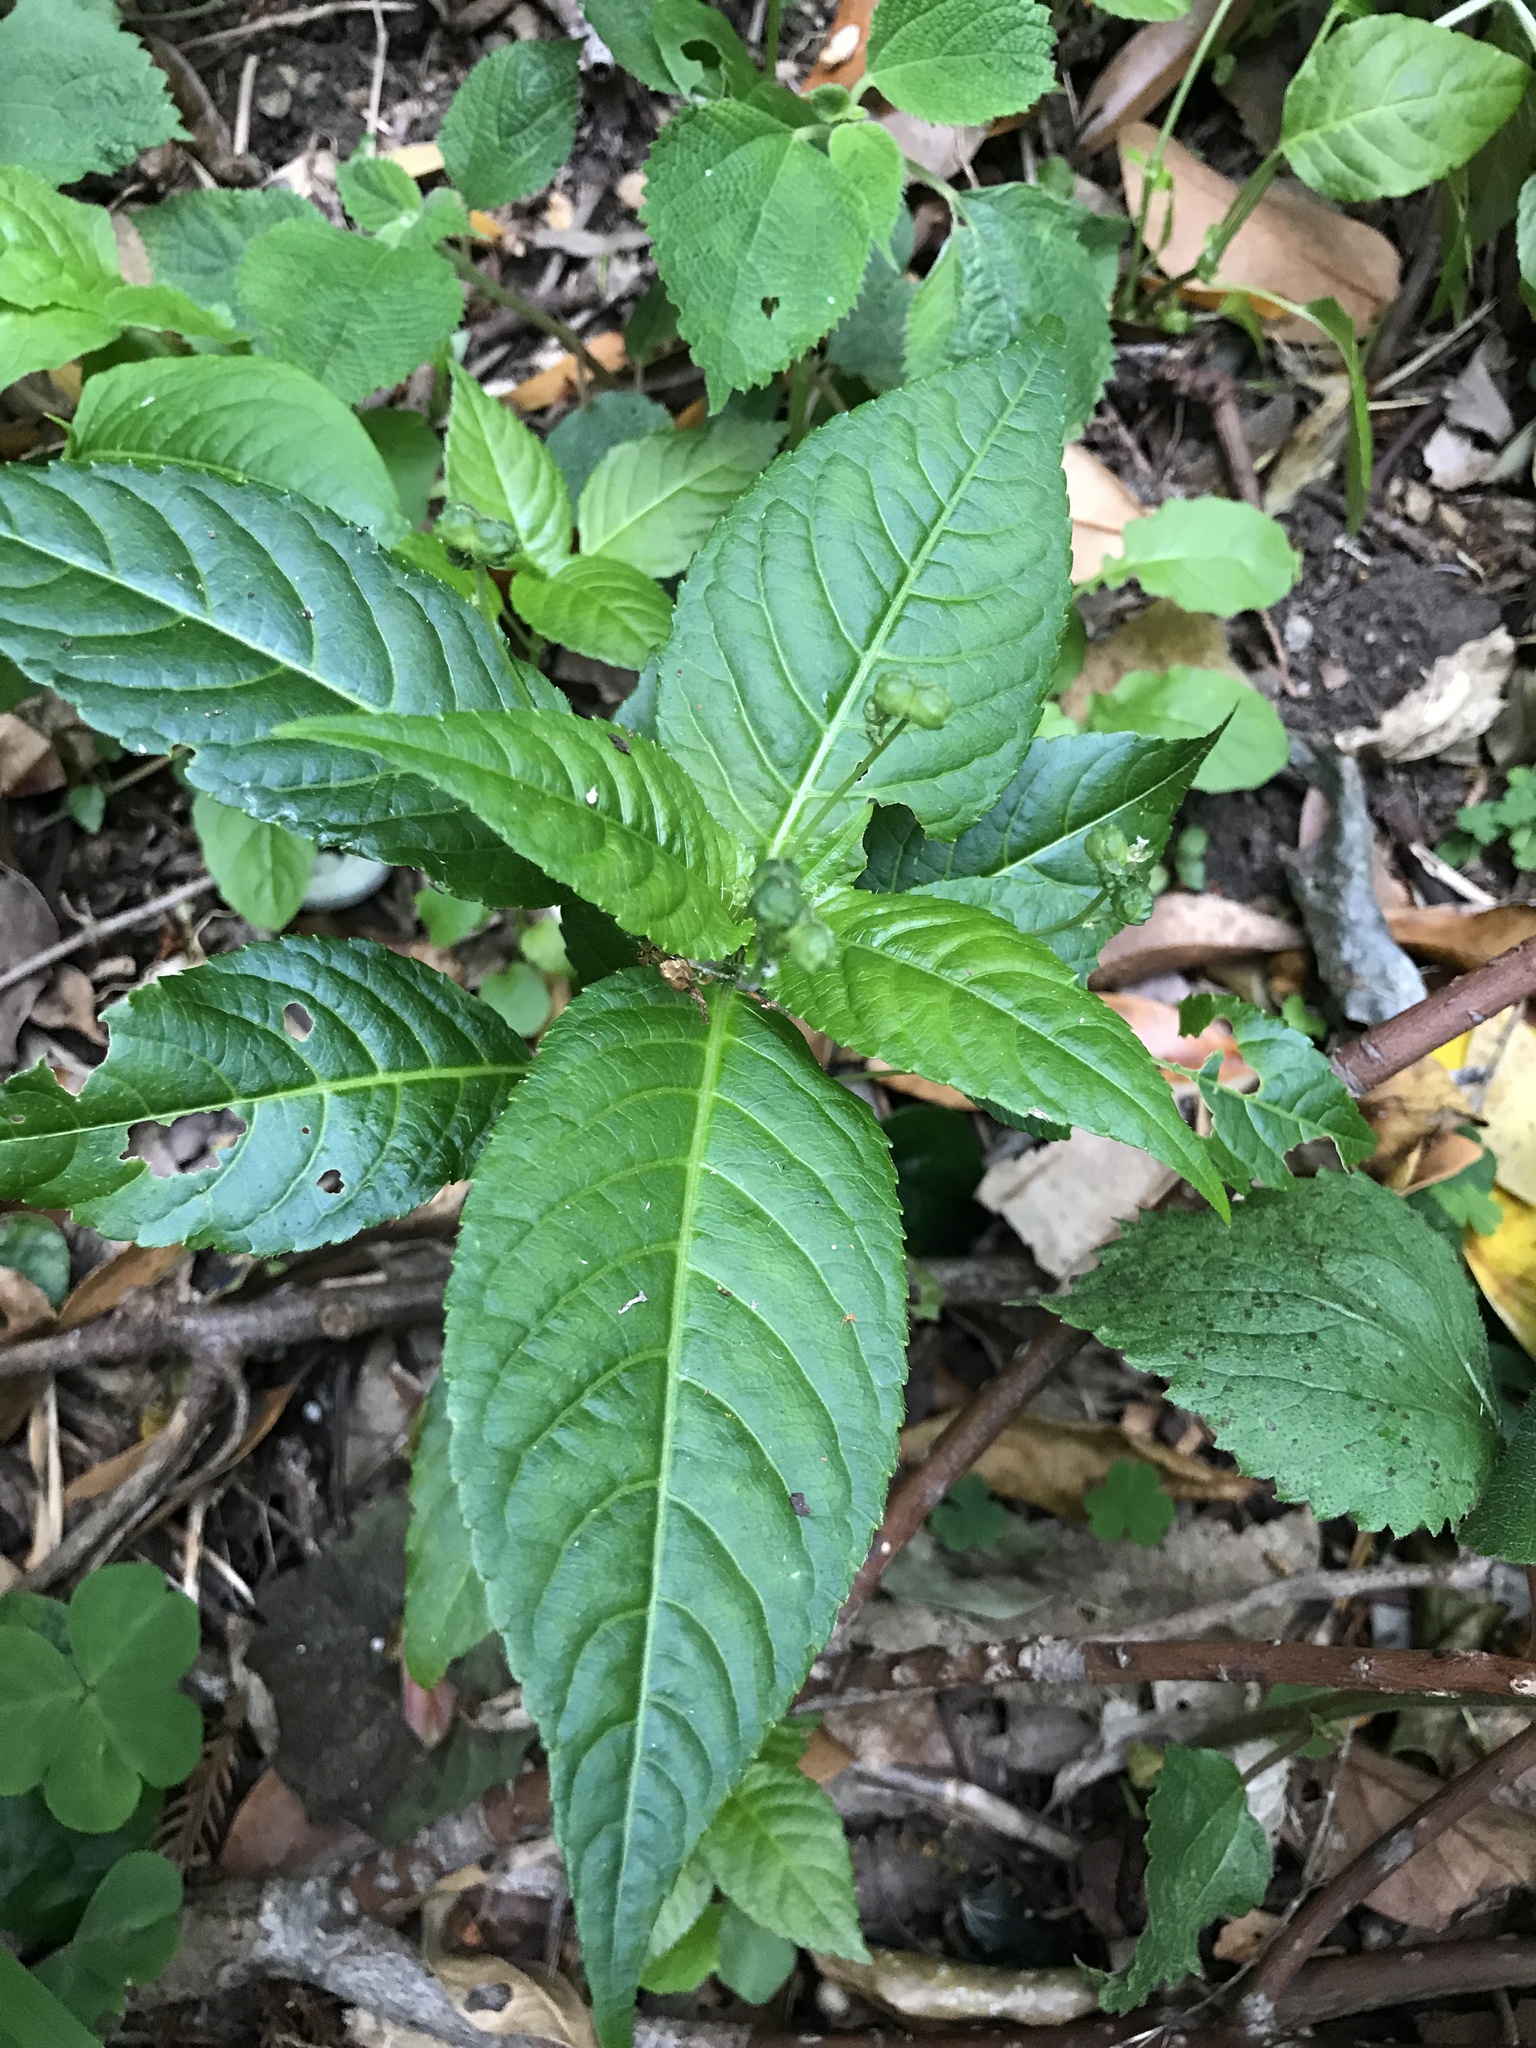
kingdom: Plantae
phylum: Tracheophyta
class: Magnoliopsida
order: Malpighiales
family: Euphorbiaceae
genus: Mercurialis
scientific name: Mercurialis leiocarpa
